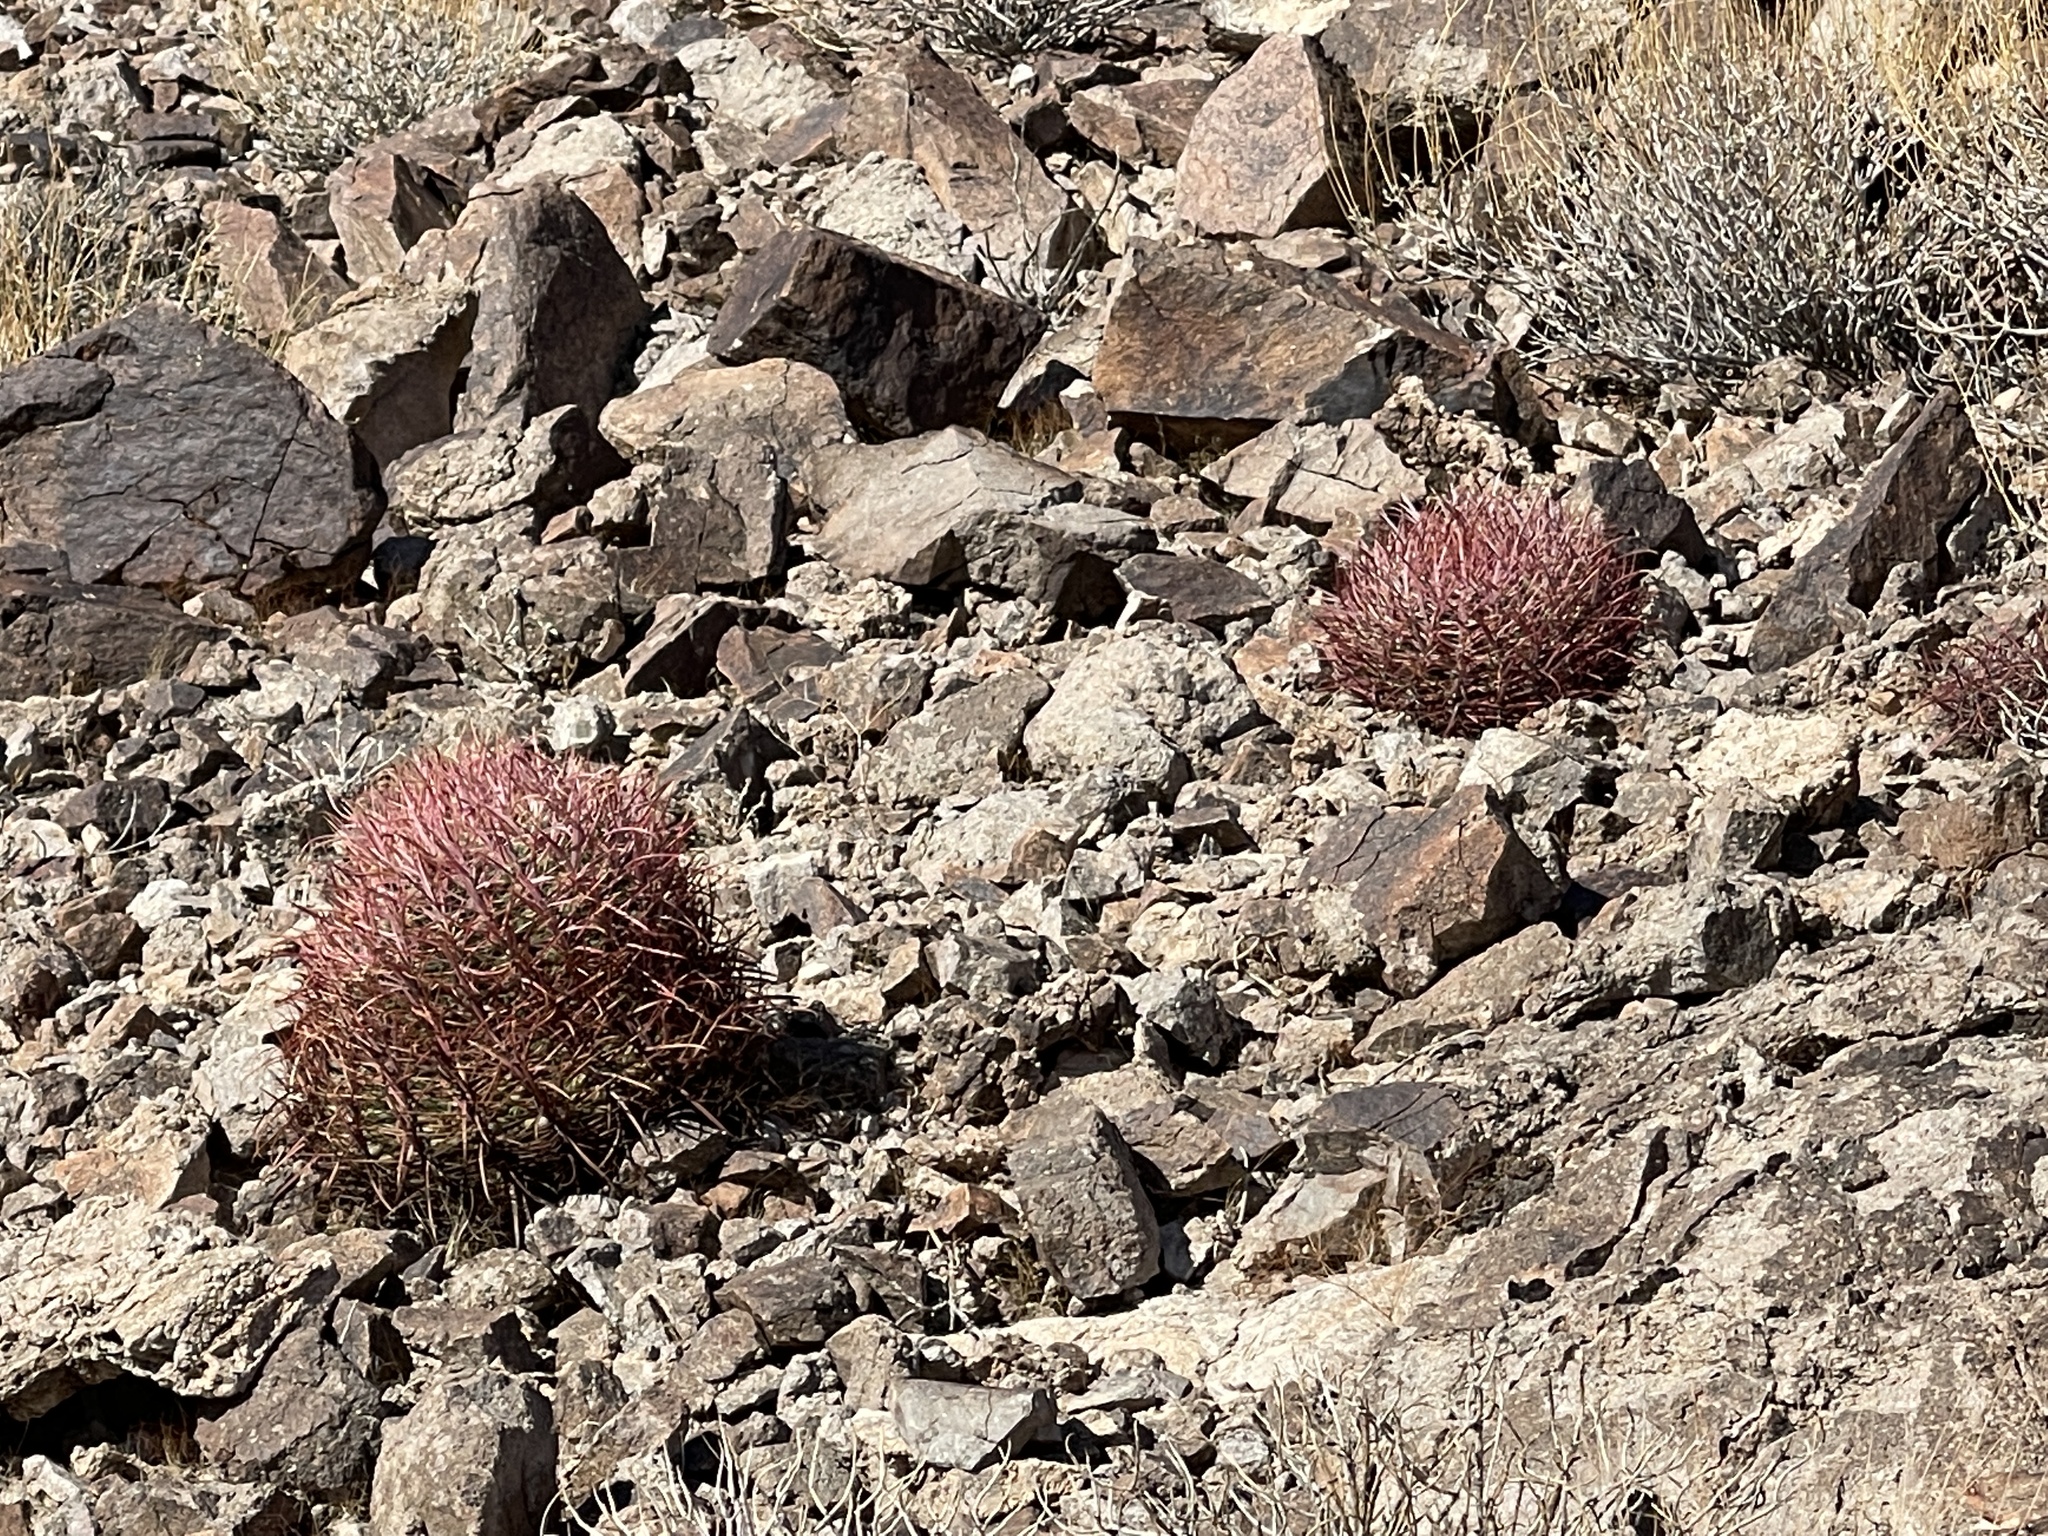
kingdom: Plantae
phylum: Tracheophyta
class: Magnoliopsida
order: Caryophyllales
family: Cactaceae
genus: Ferocactus
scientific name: Ferocactus cylindraceus
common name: California barrel cactus
